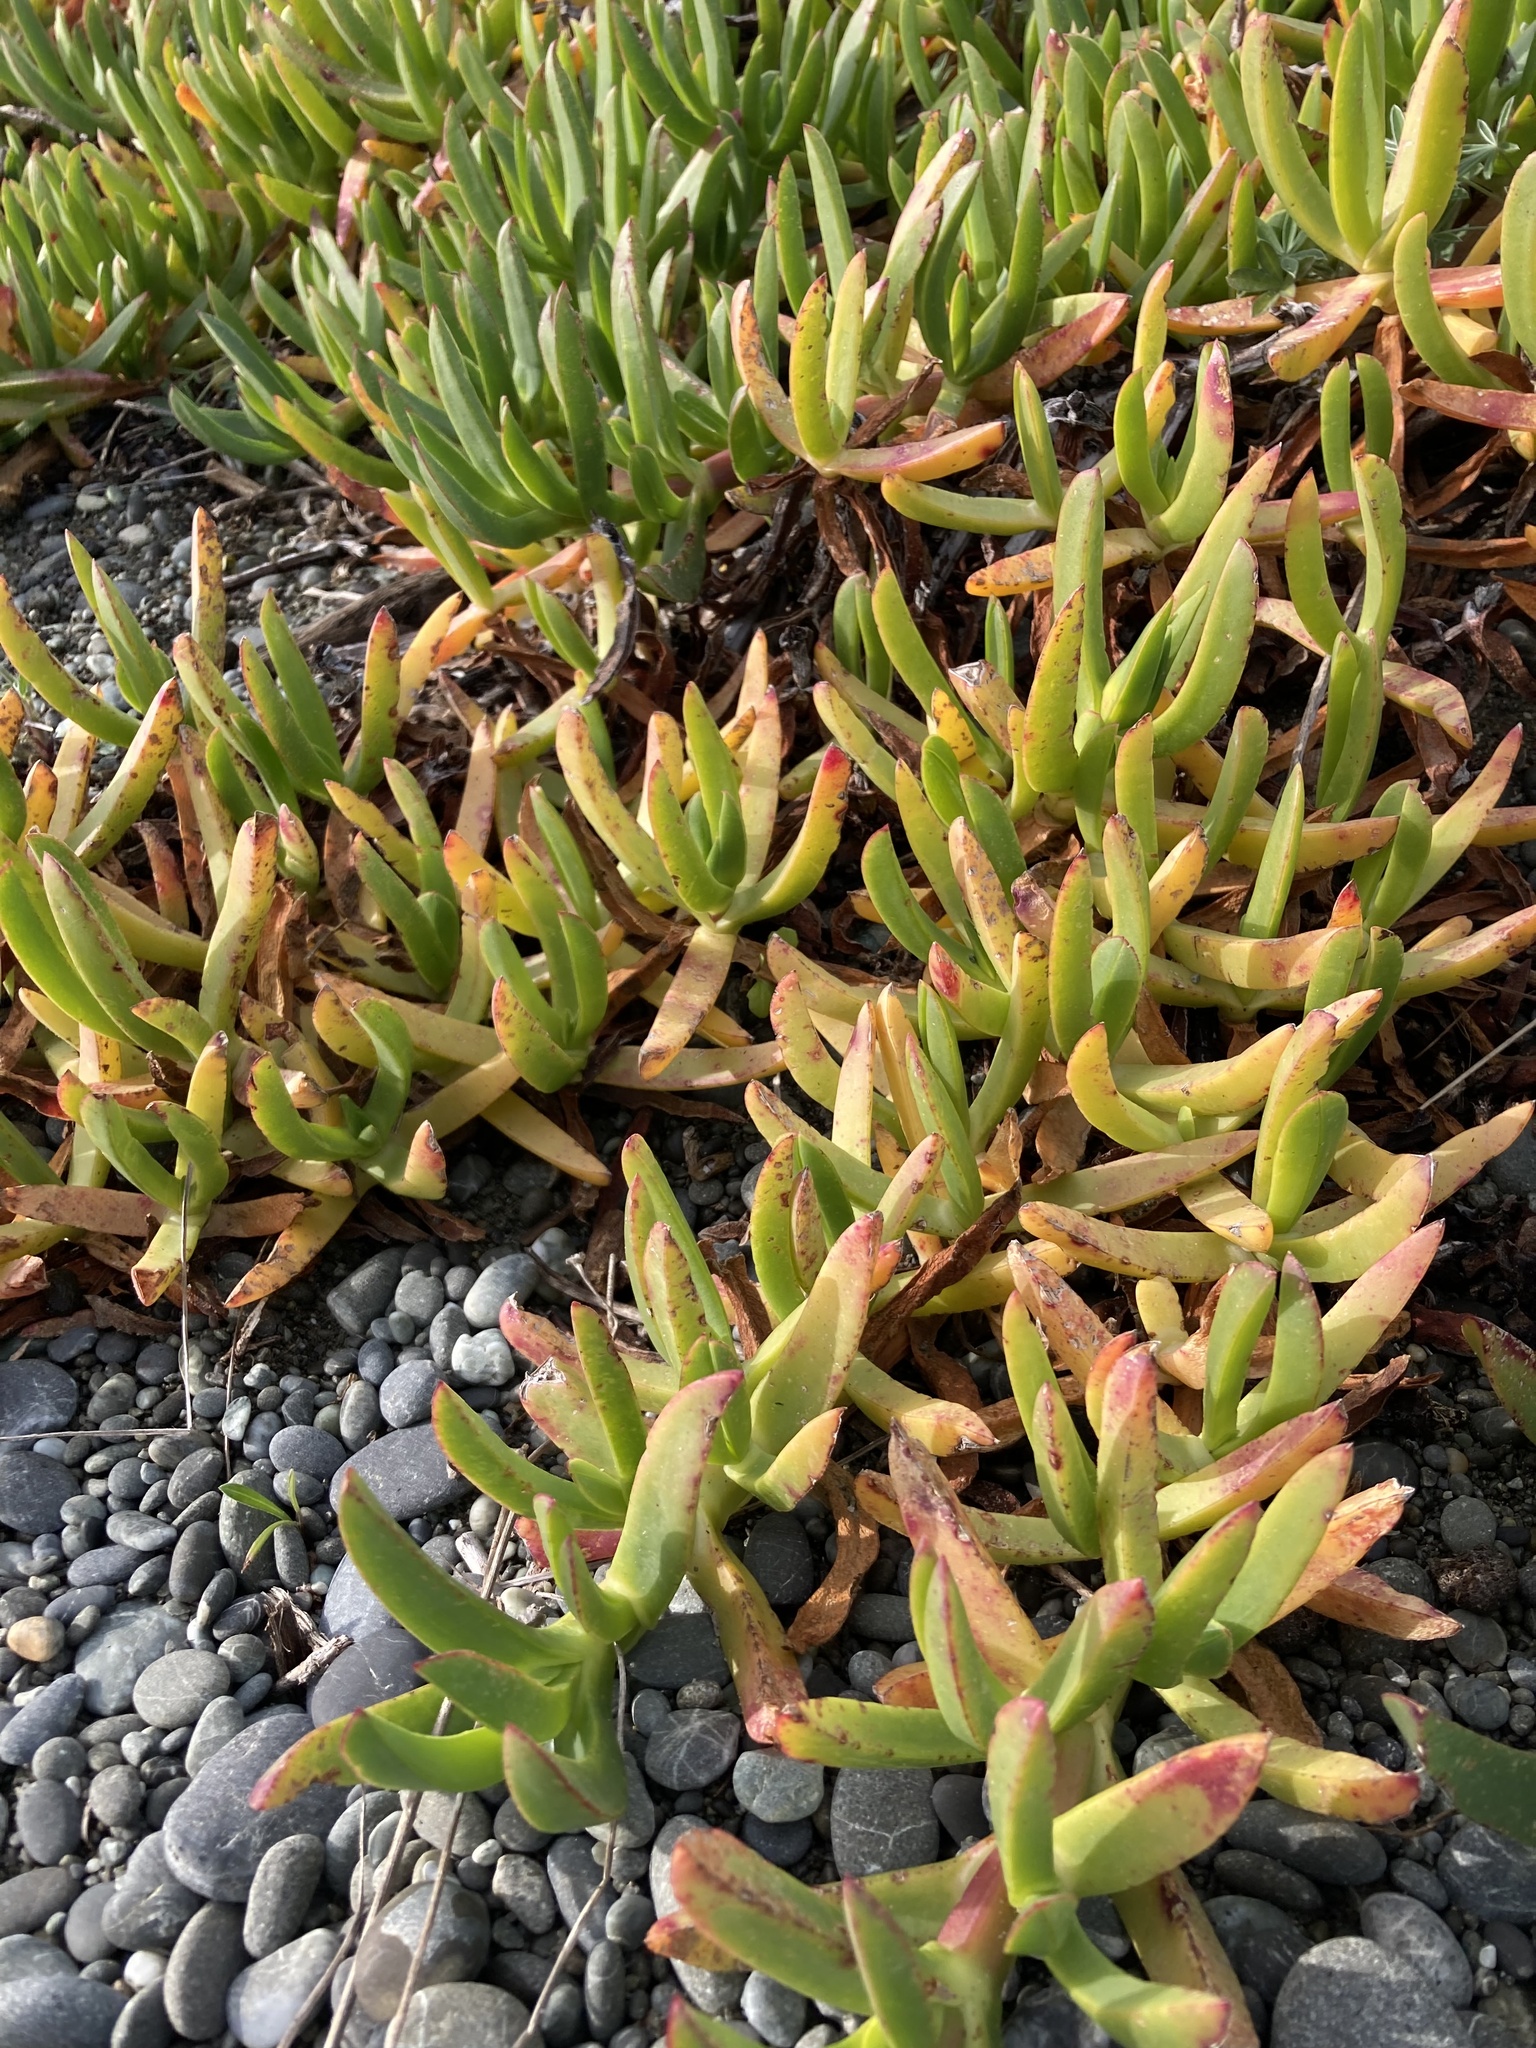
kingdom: Plantae
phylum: Tracheophyta
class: Magnoliopsida
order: Caryophyllales
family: Aizoaceae
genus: Disphyma
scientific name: Disphyma australe
